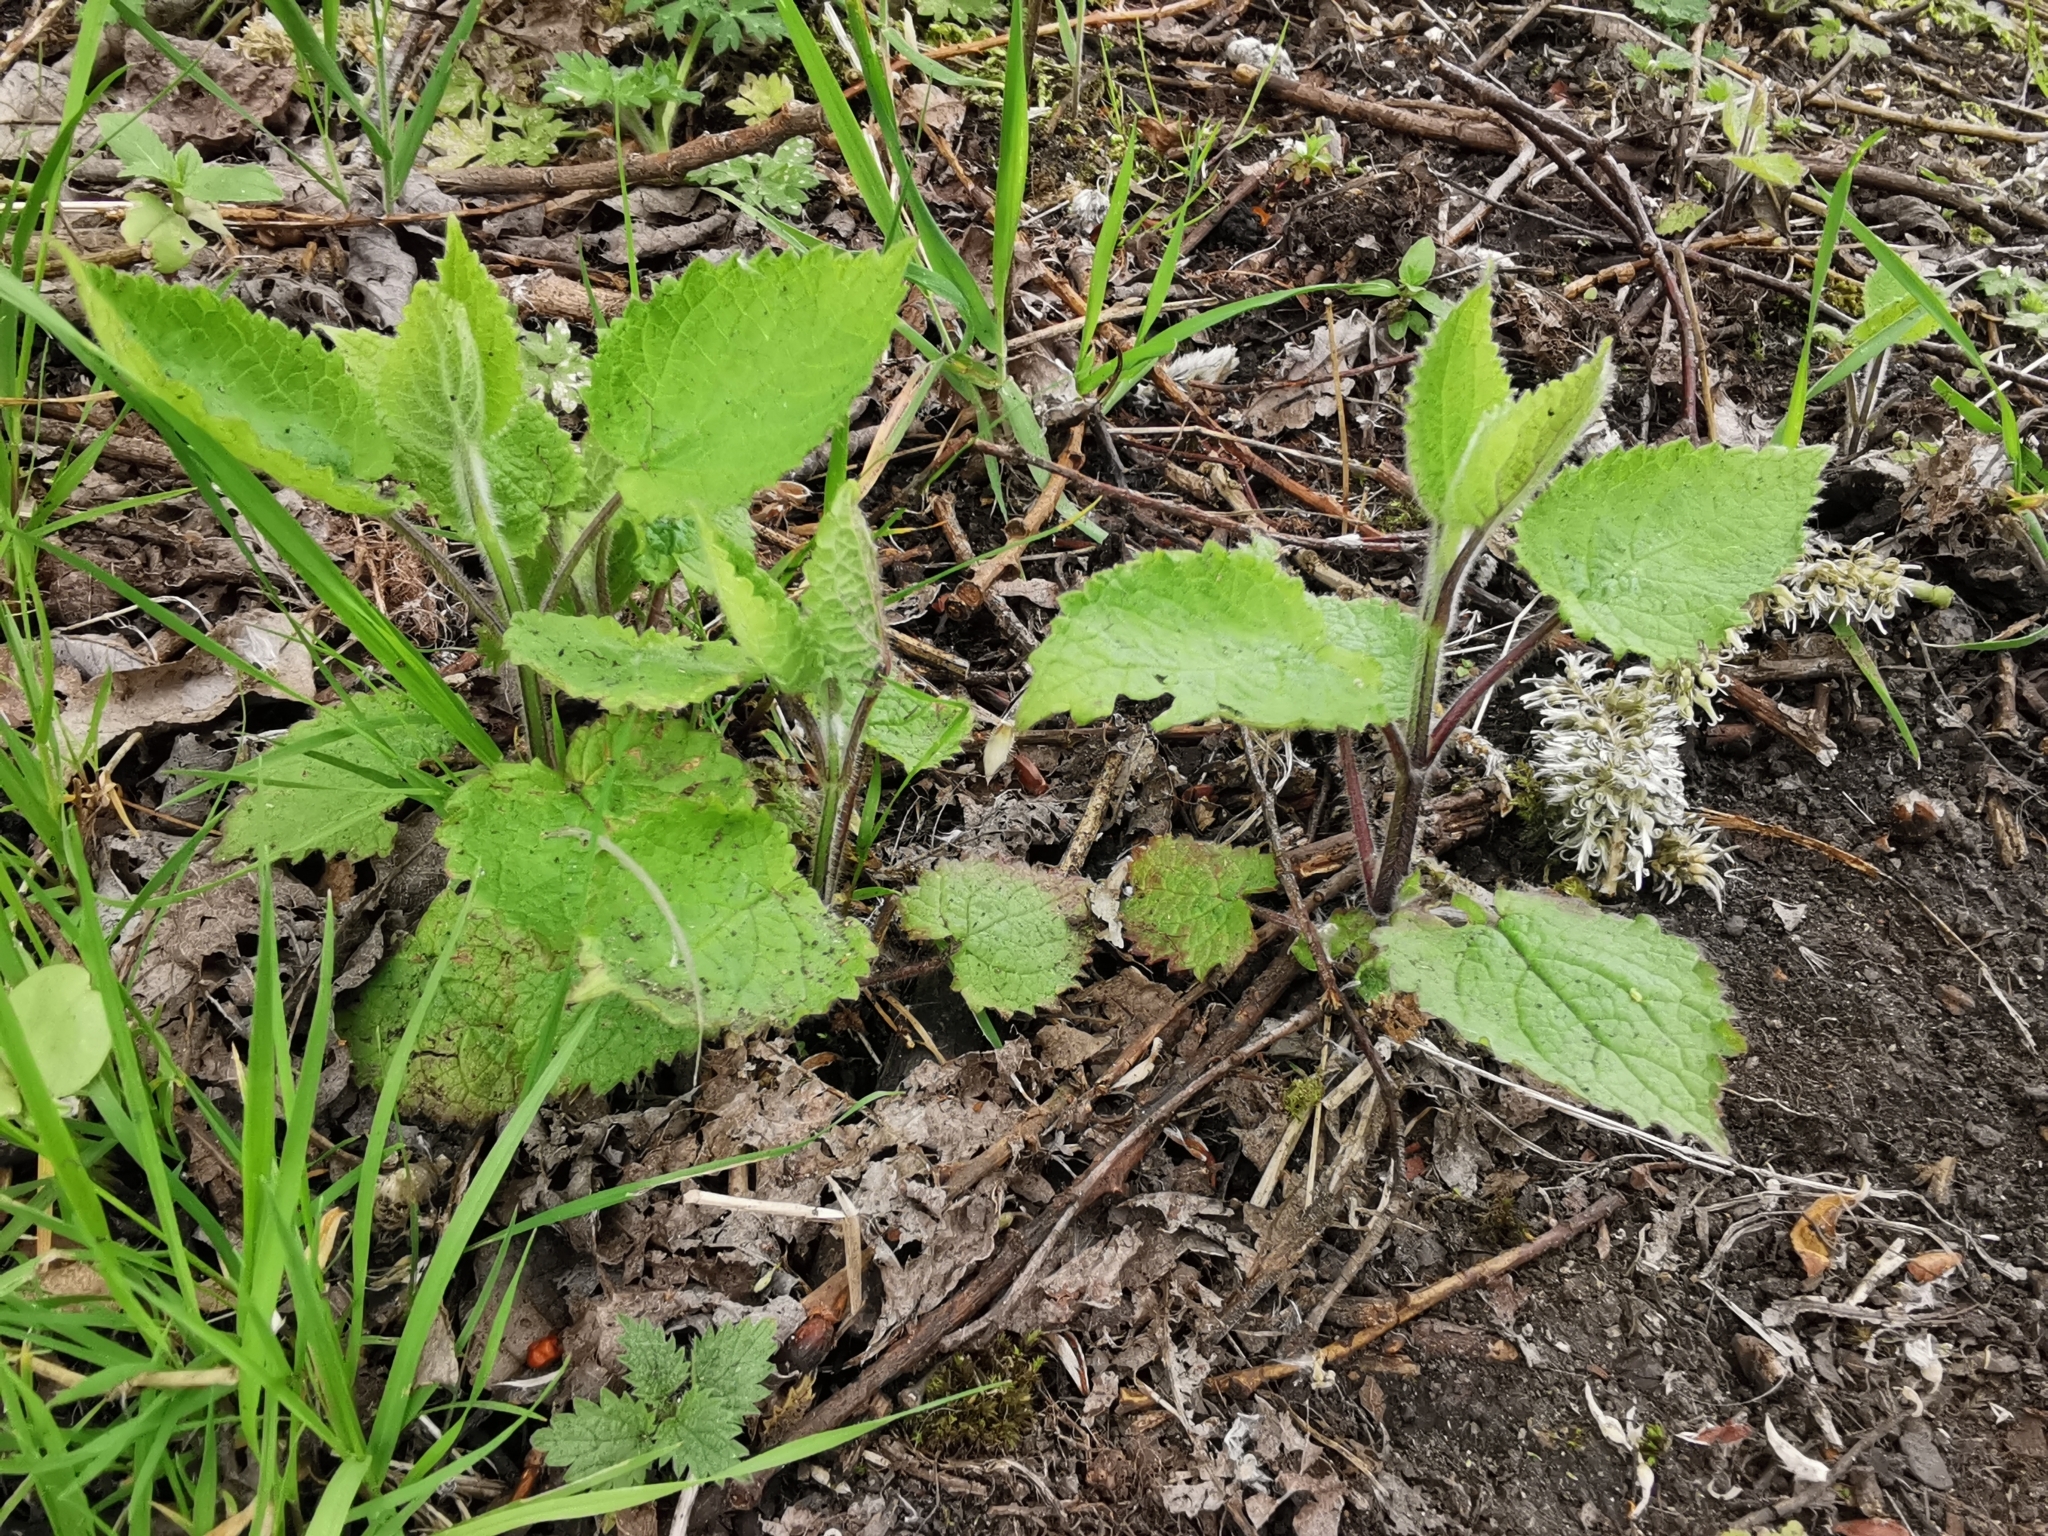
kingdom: Plantae
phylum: Tracheophyta
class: Magnoliopsida
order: Lamiales
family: Lamiaceae
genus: Stachys
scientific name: Stachys sylvatica
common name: Hedge woundwort
